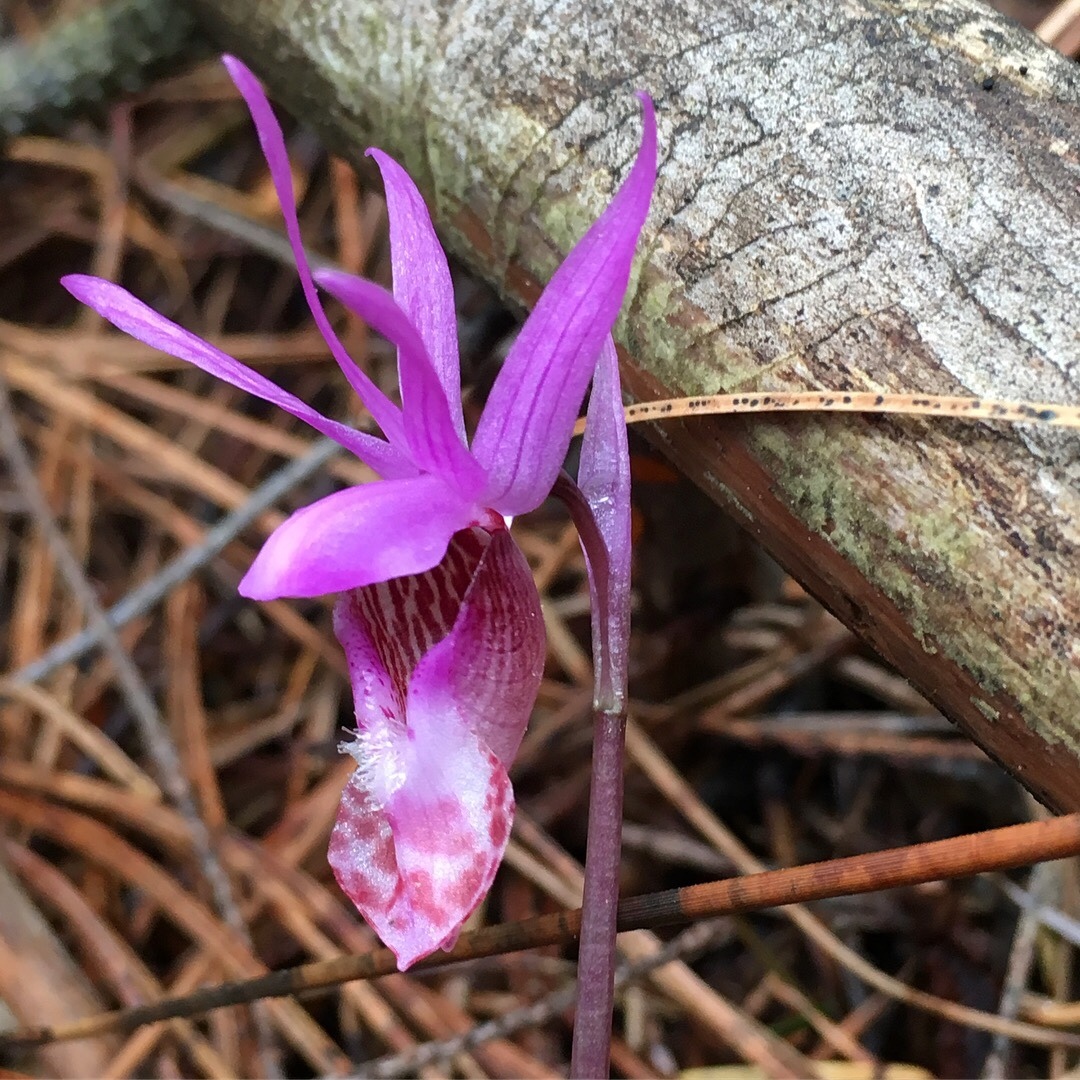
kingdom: Plantae
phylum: Tracheophyta
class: Liliopsida
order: Asparagales
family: Orchidaceae
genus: Calypso
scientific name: Calypso bulbosa
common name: Calypso
